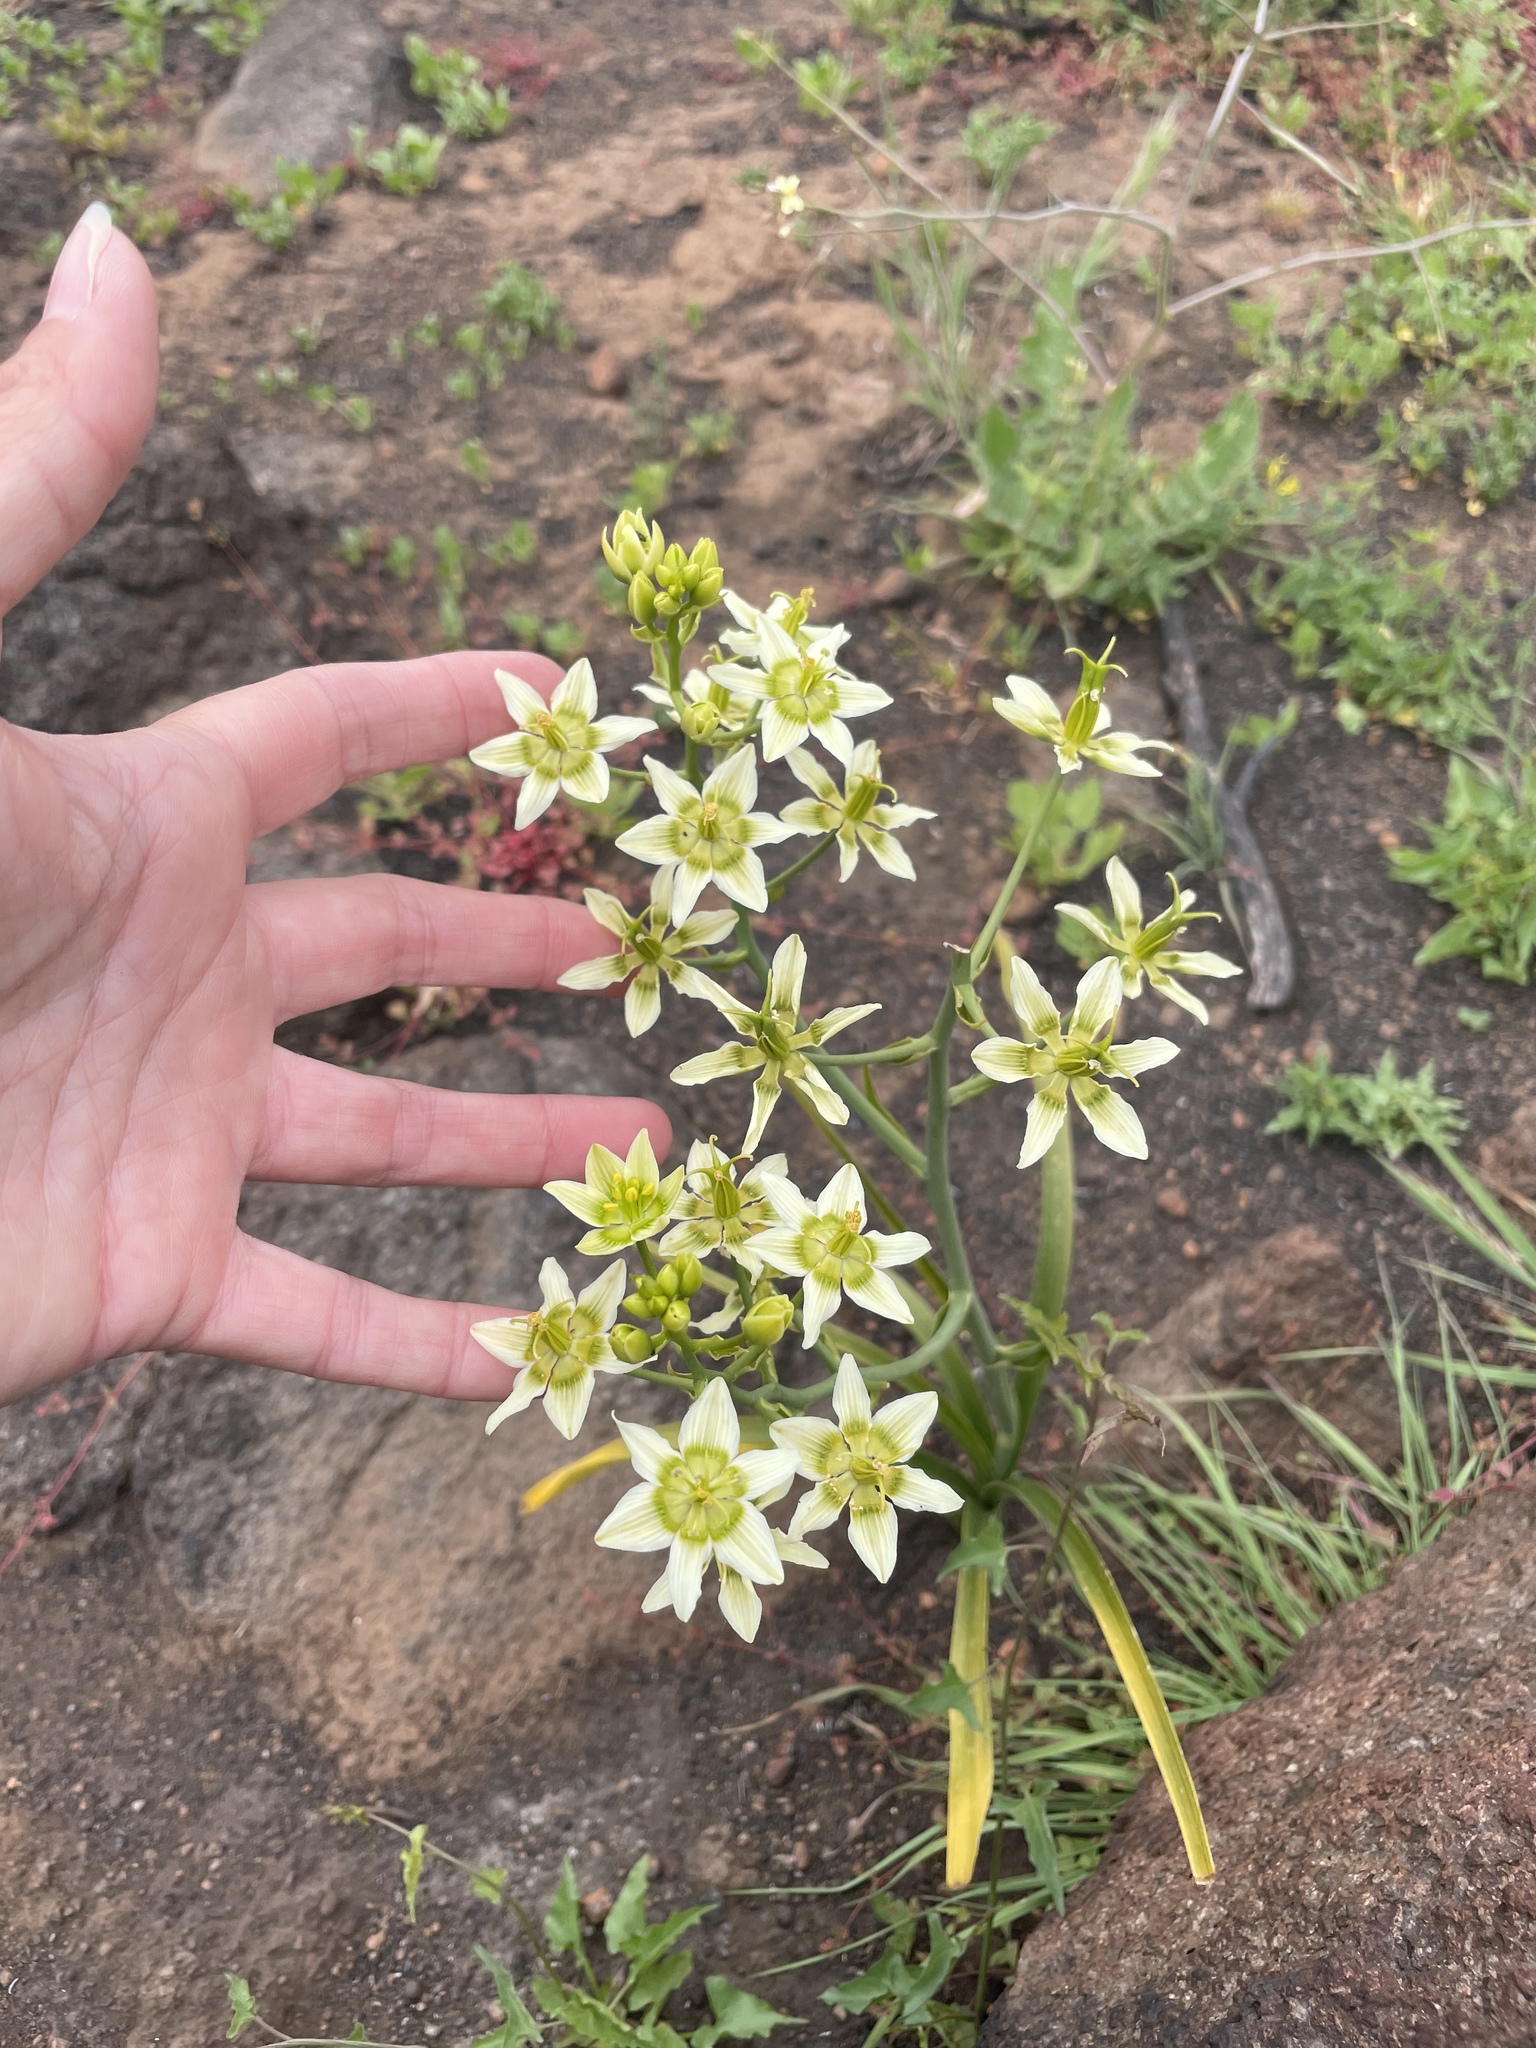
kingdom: Plantae
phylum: Tracheophyta
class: Liliopsida
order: Liliales
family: Melanthiaceae
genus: Toxicoscordion
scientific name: Toxicoscordion fremontii
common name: Fremont's death camas
